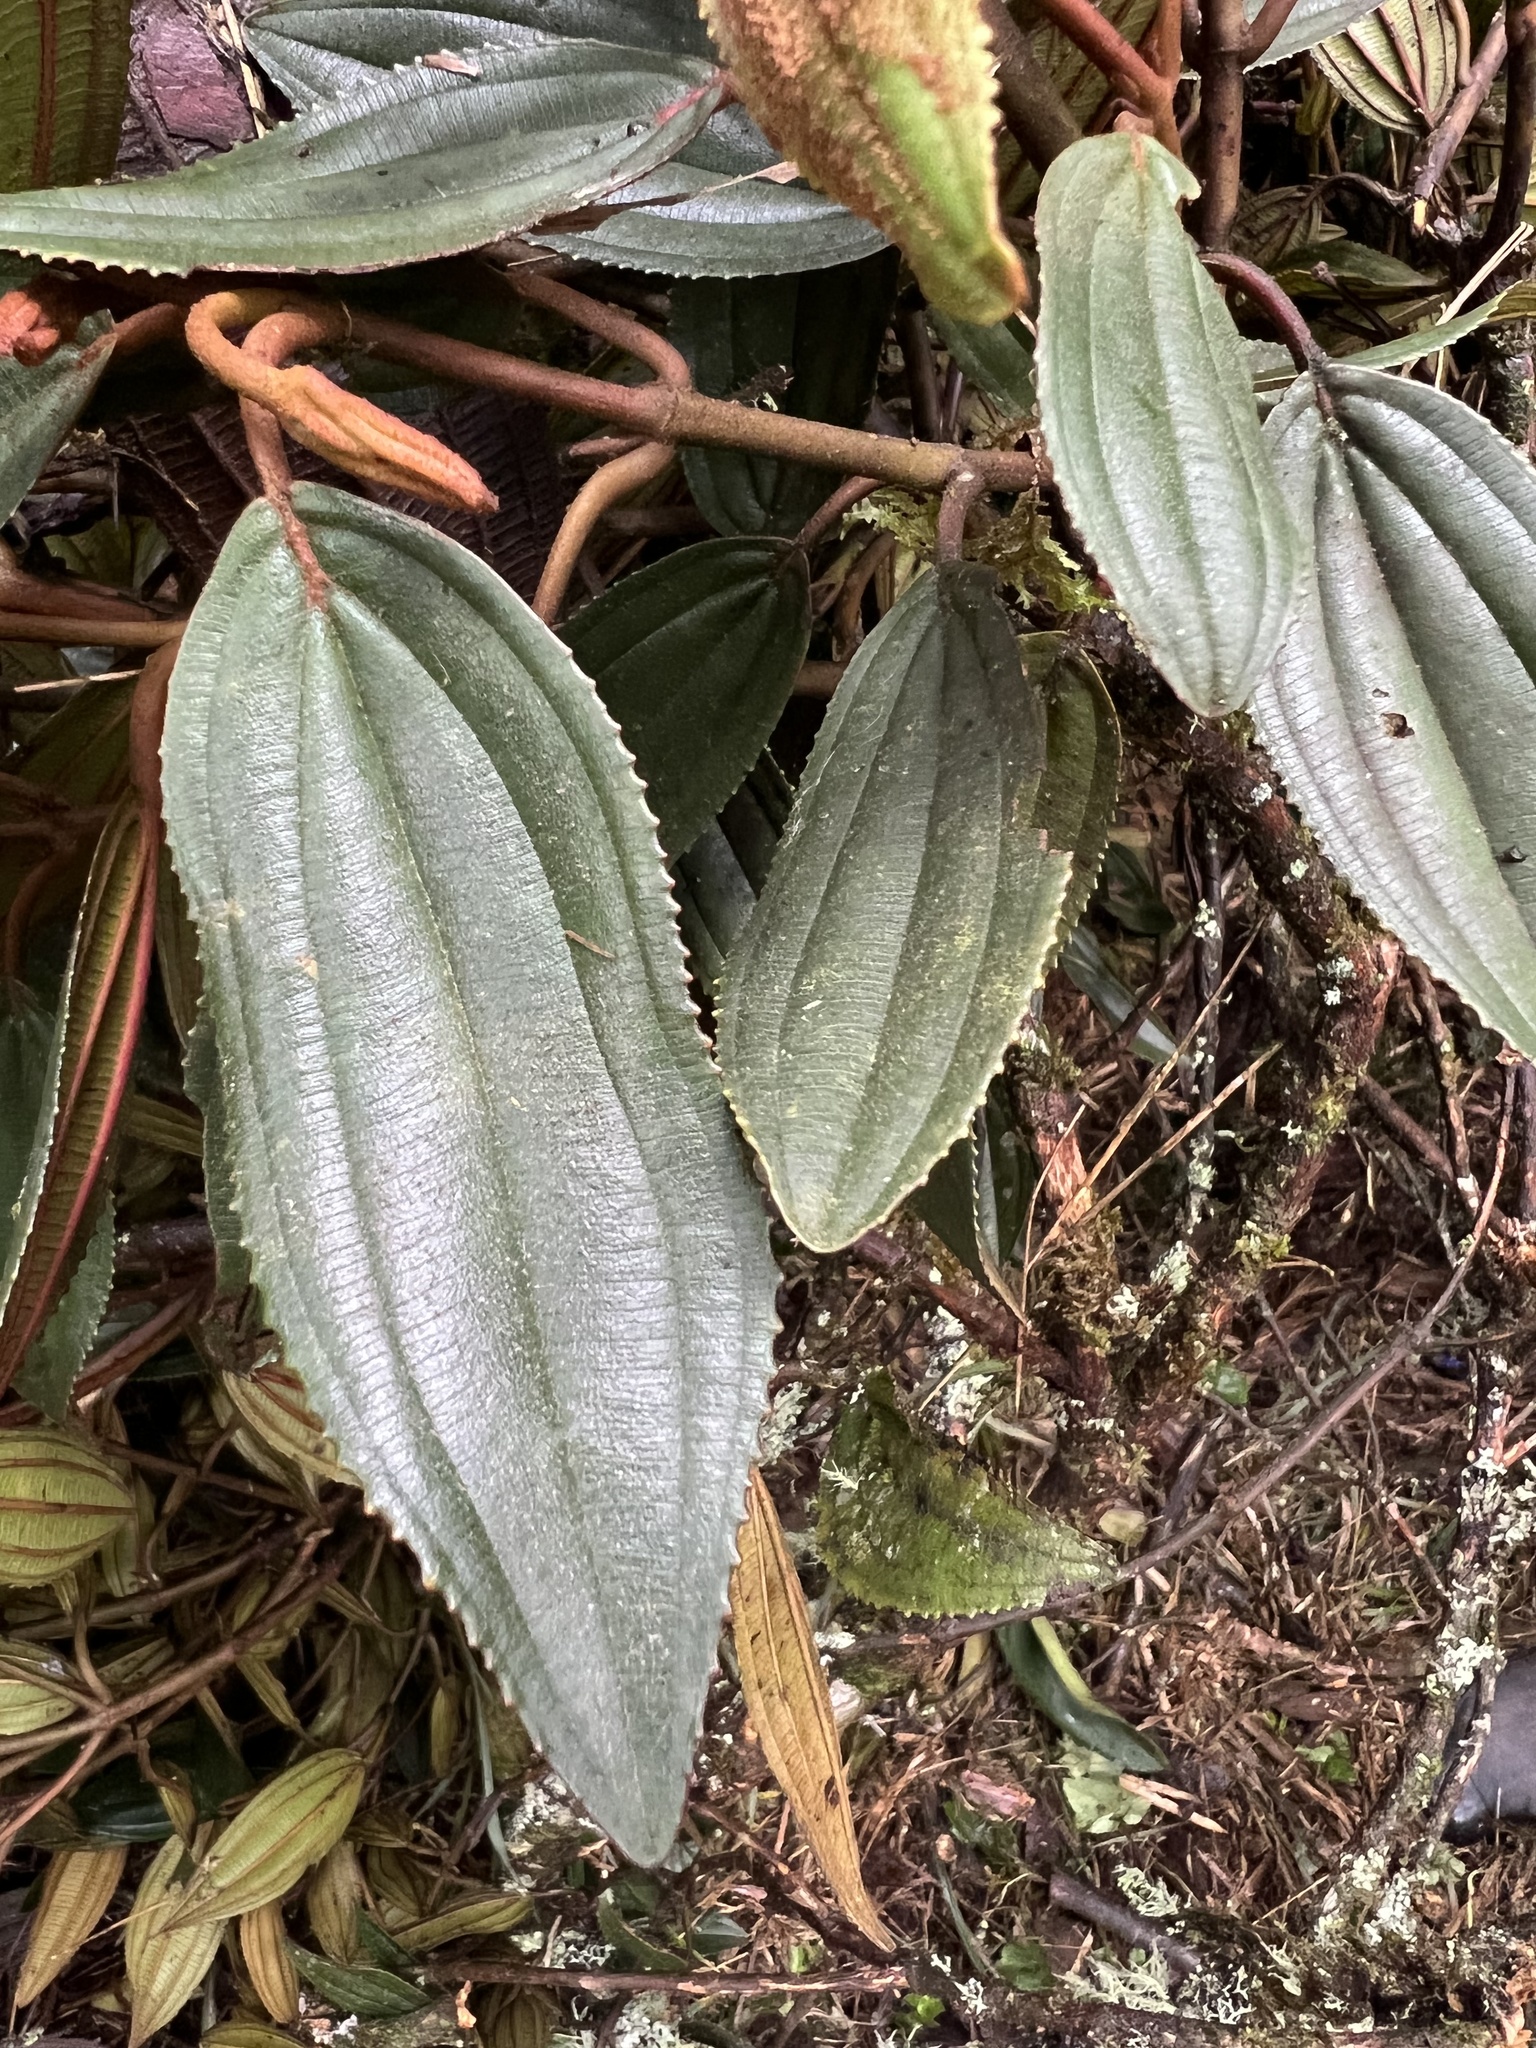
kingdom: Plantae
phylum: Tracheophyta
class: Magnoliopsida
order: Myrtales
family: Melastomataceae
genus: Meriania
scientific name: Meriania aguaditensis
